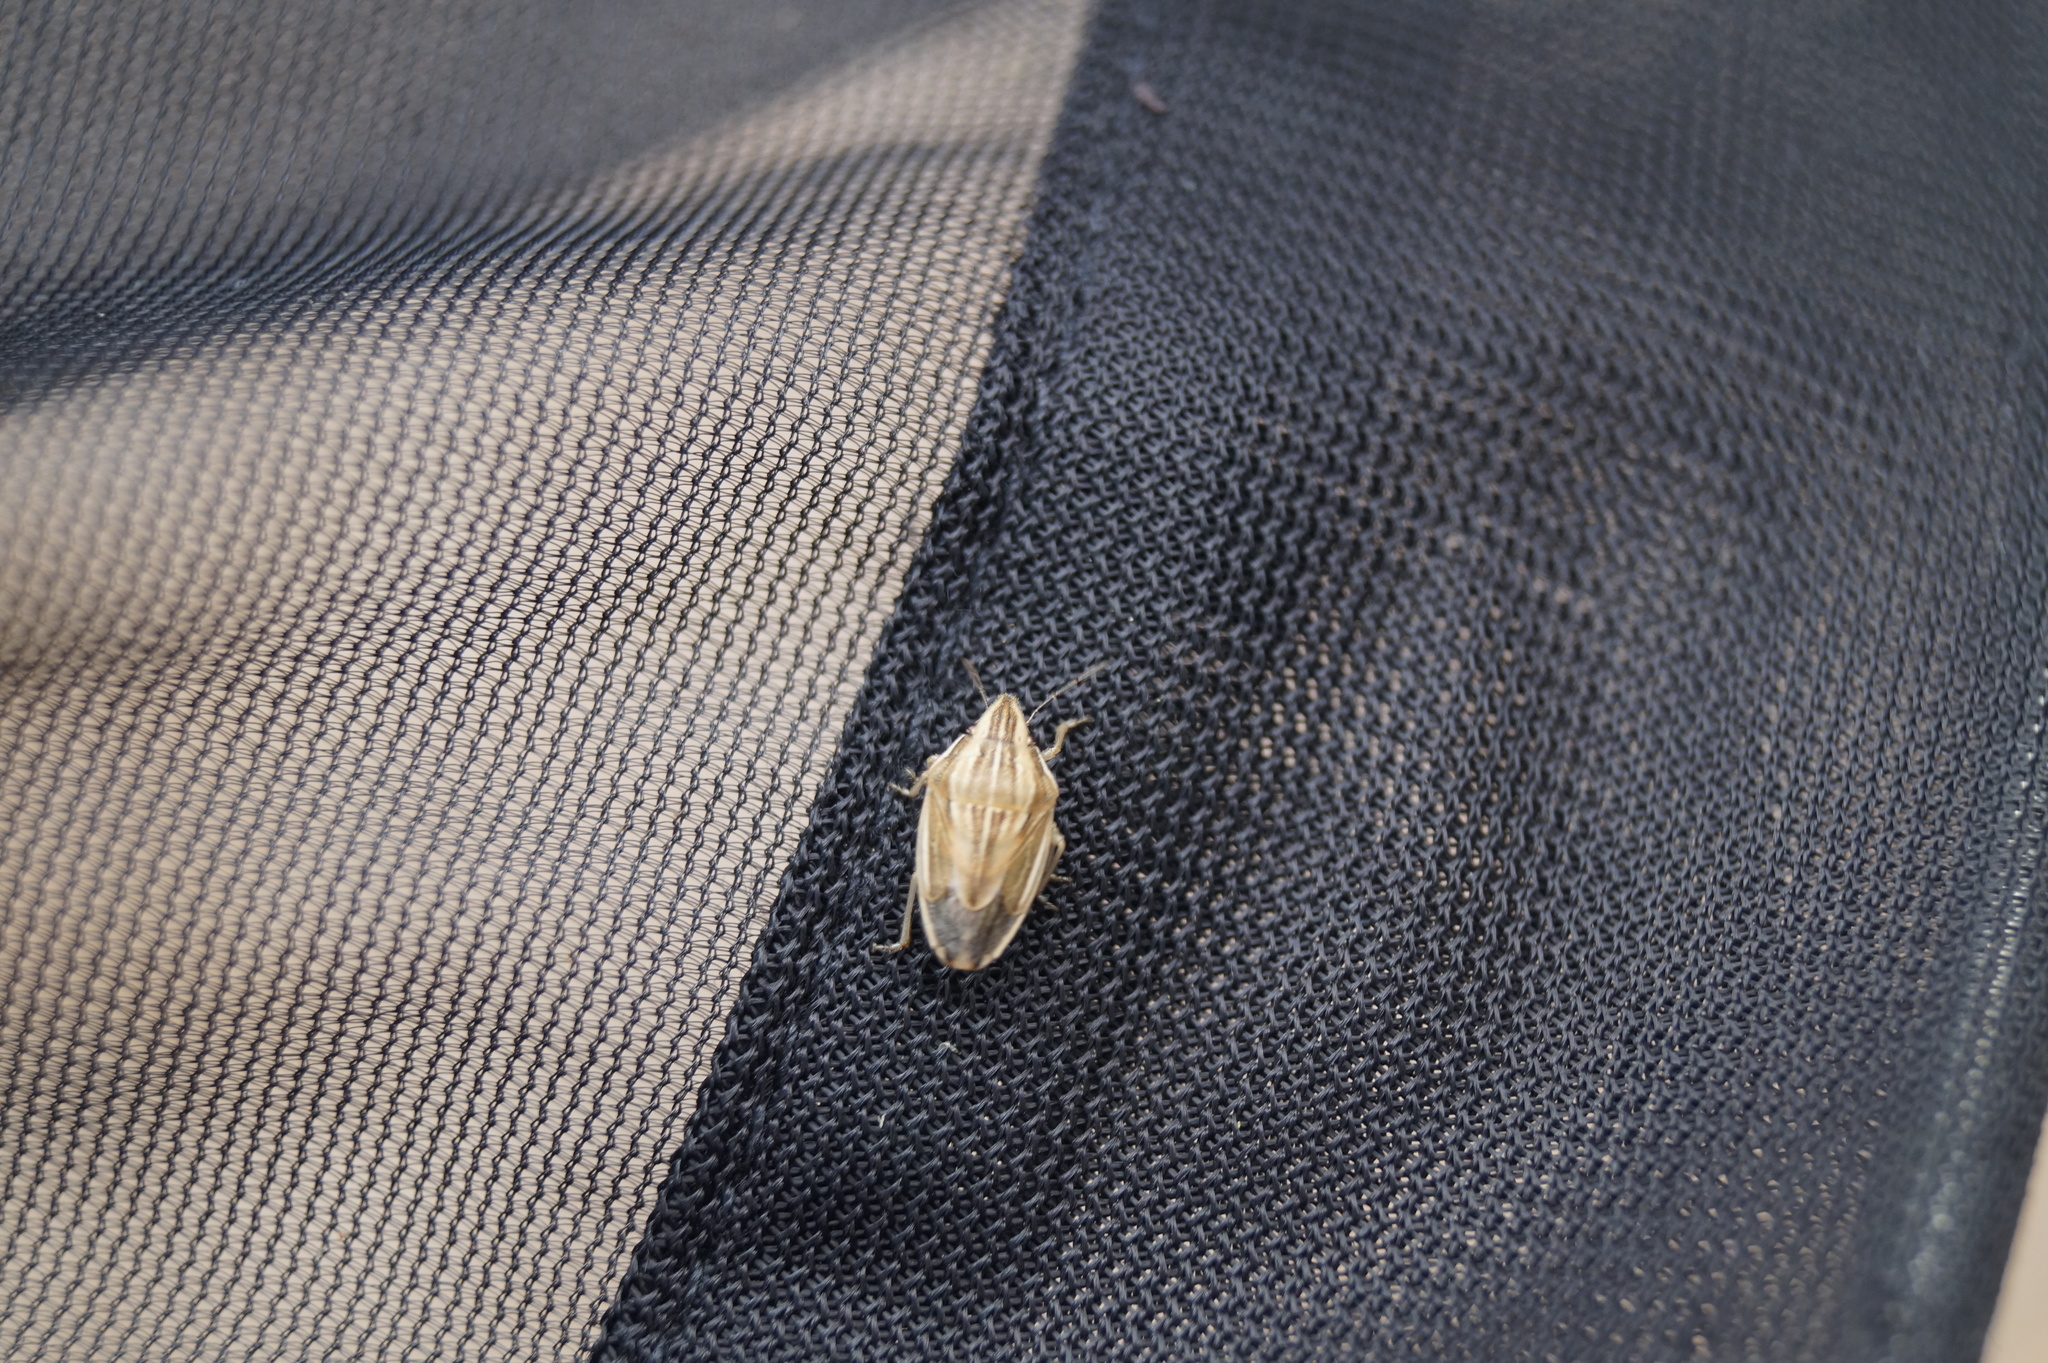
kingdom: Animalia
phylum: Arthropoda
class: Insecta
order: Hemiptera
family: Pentatomidae
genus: Aelia
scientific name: Aelia acuminata
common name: Bishop's mitre
